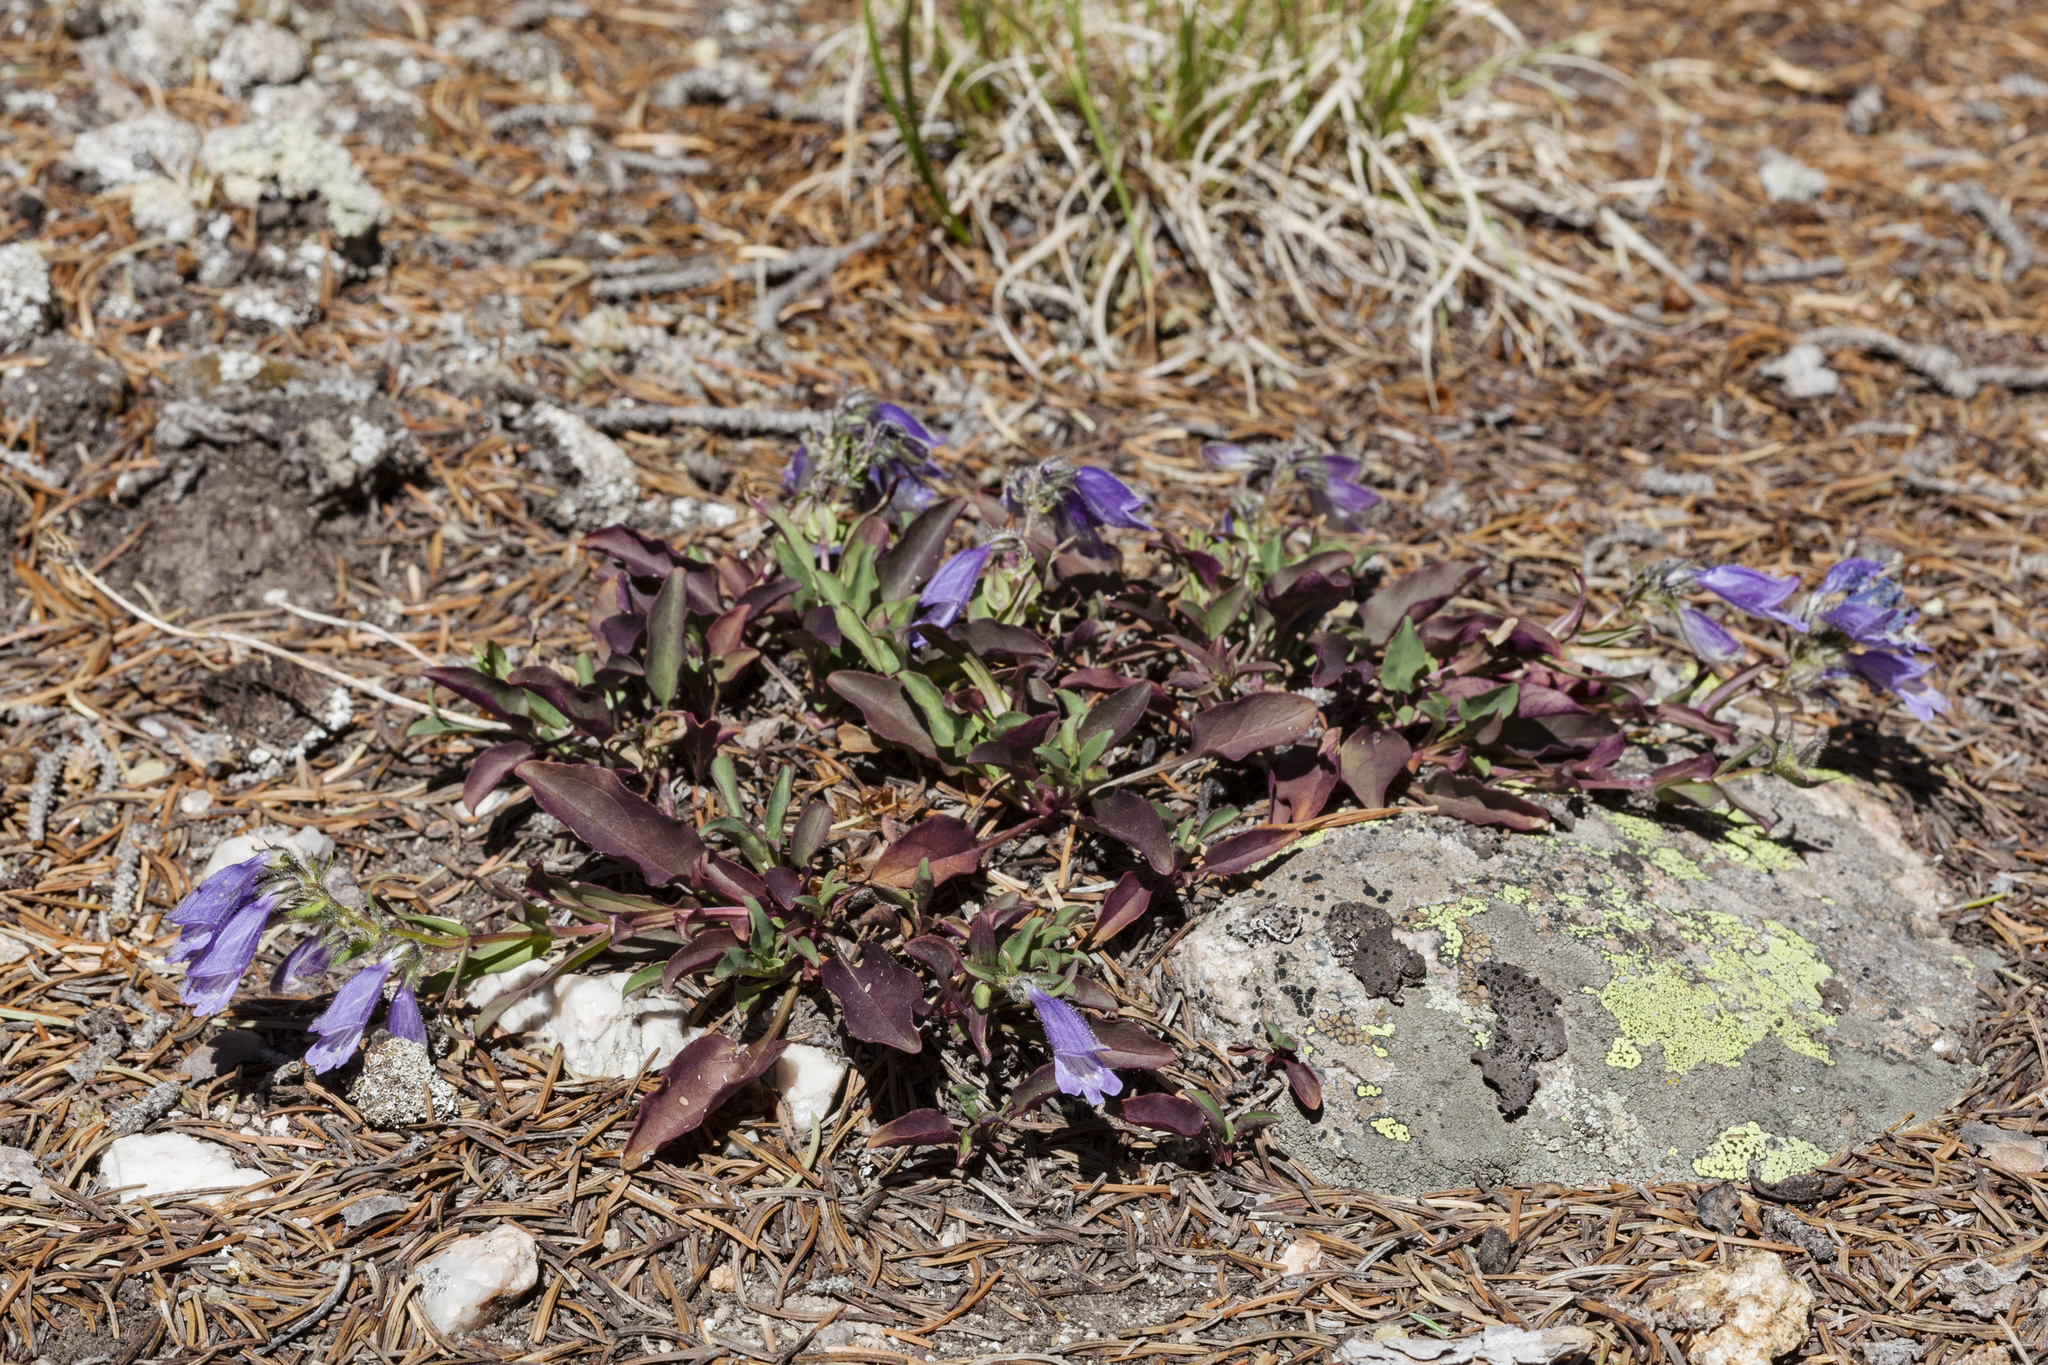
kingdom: Plantae
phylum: Tracheophyta
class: Magnoliopsida
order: Lamiales
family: Plantaginaceae
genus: Penstemon
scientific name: Penstemon bleaklyi
